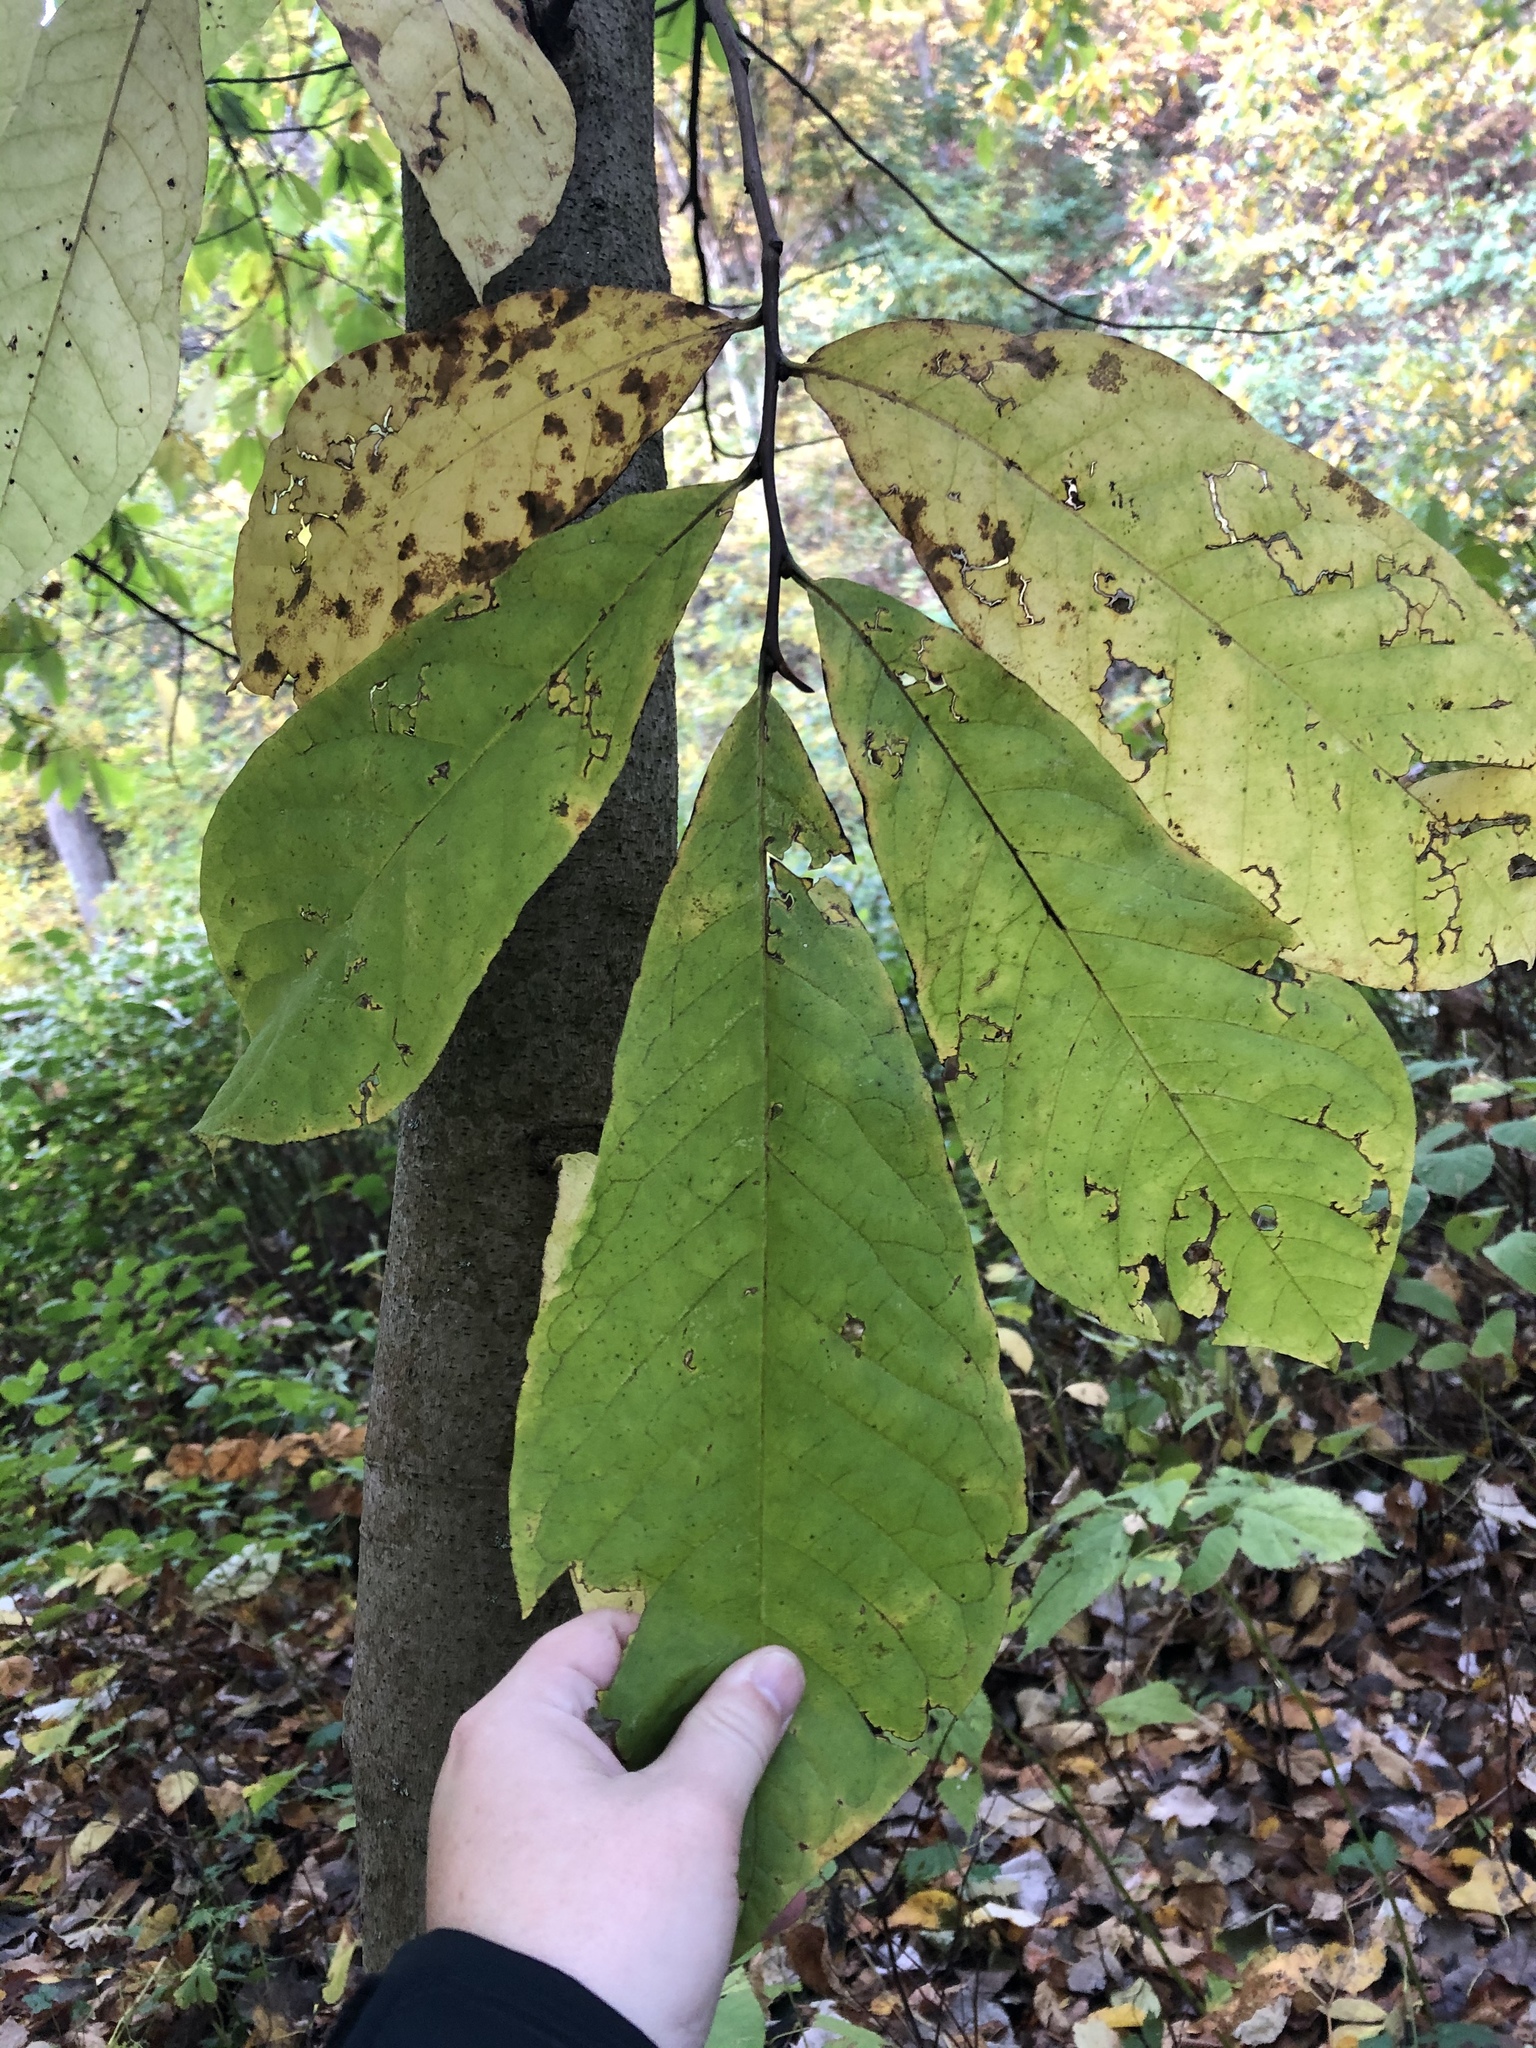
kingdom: Plantae
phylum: Tracheophyta
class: Magnoliopsida
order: Magnoliales
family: Annonaceae
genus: Asimina
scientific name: Asimina triloba
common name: Dog-banana
